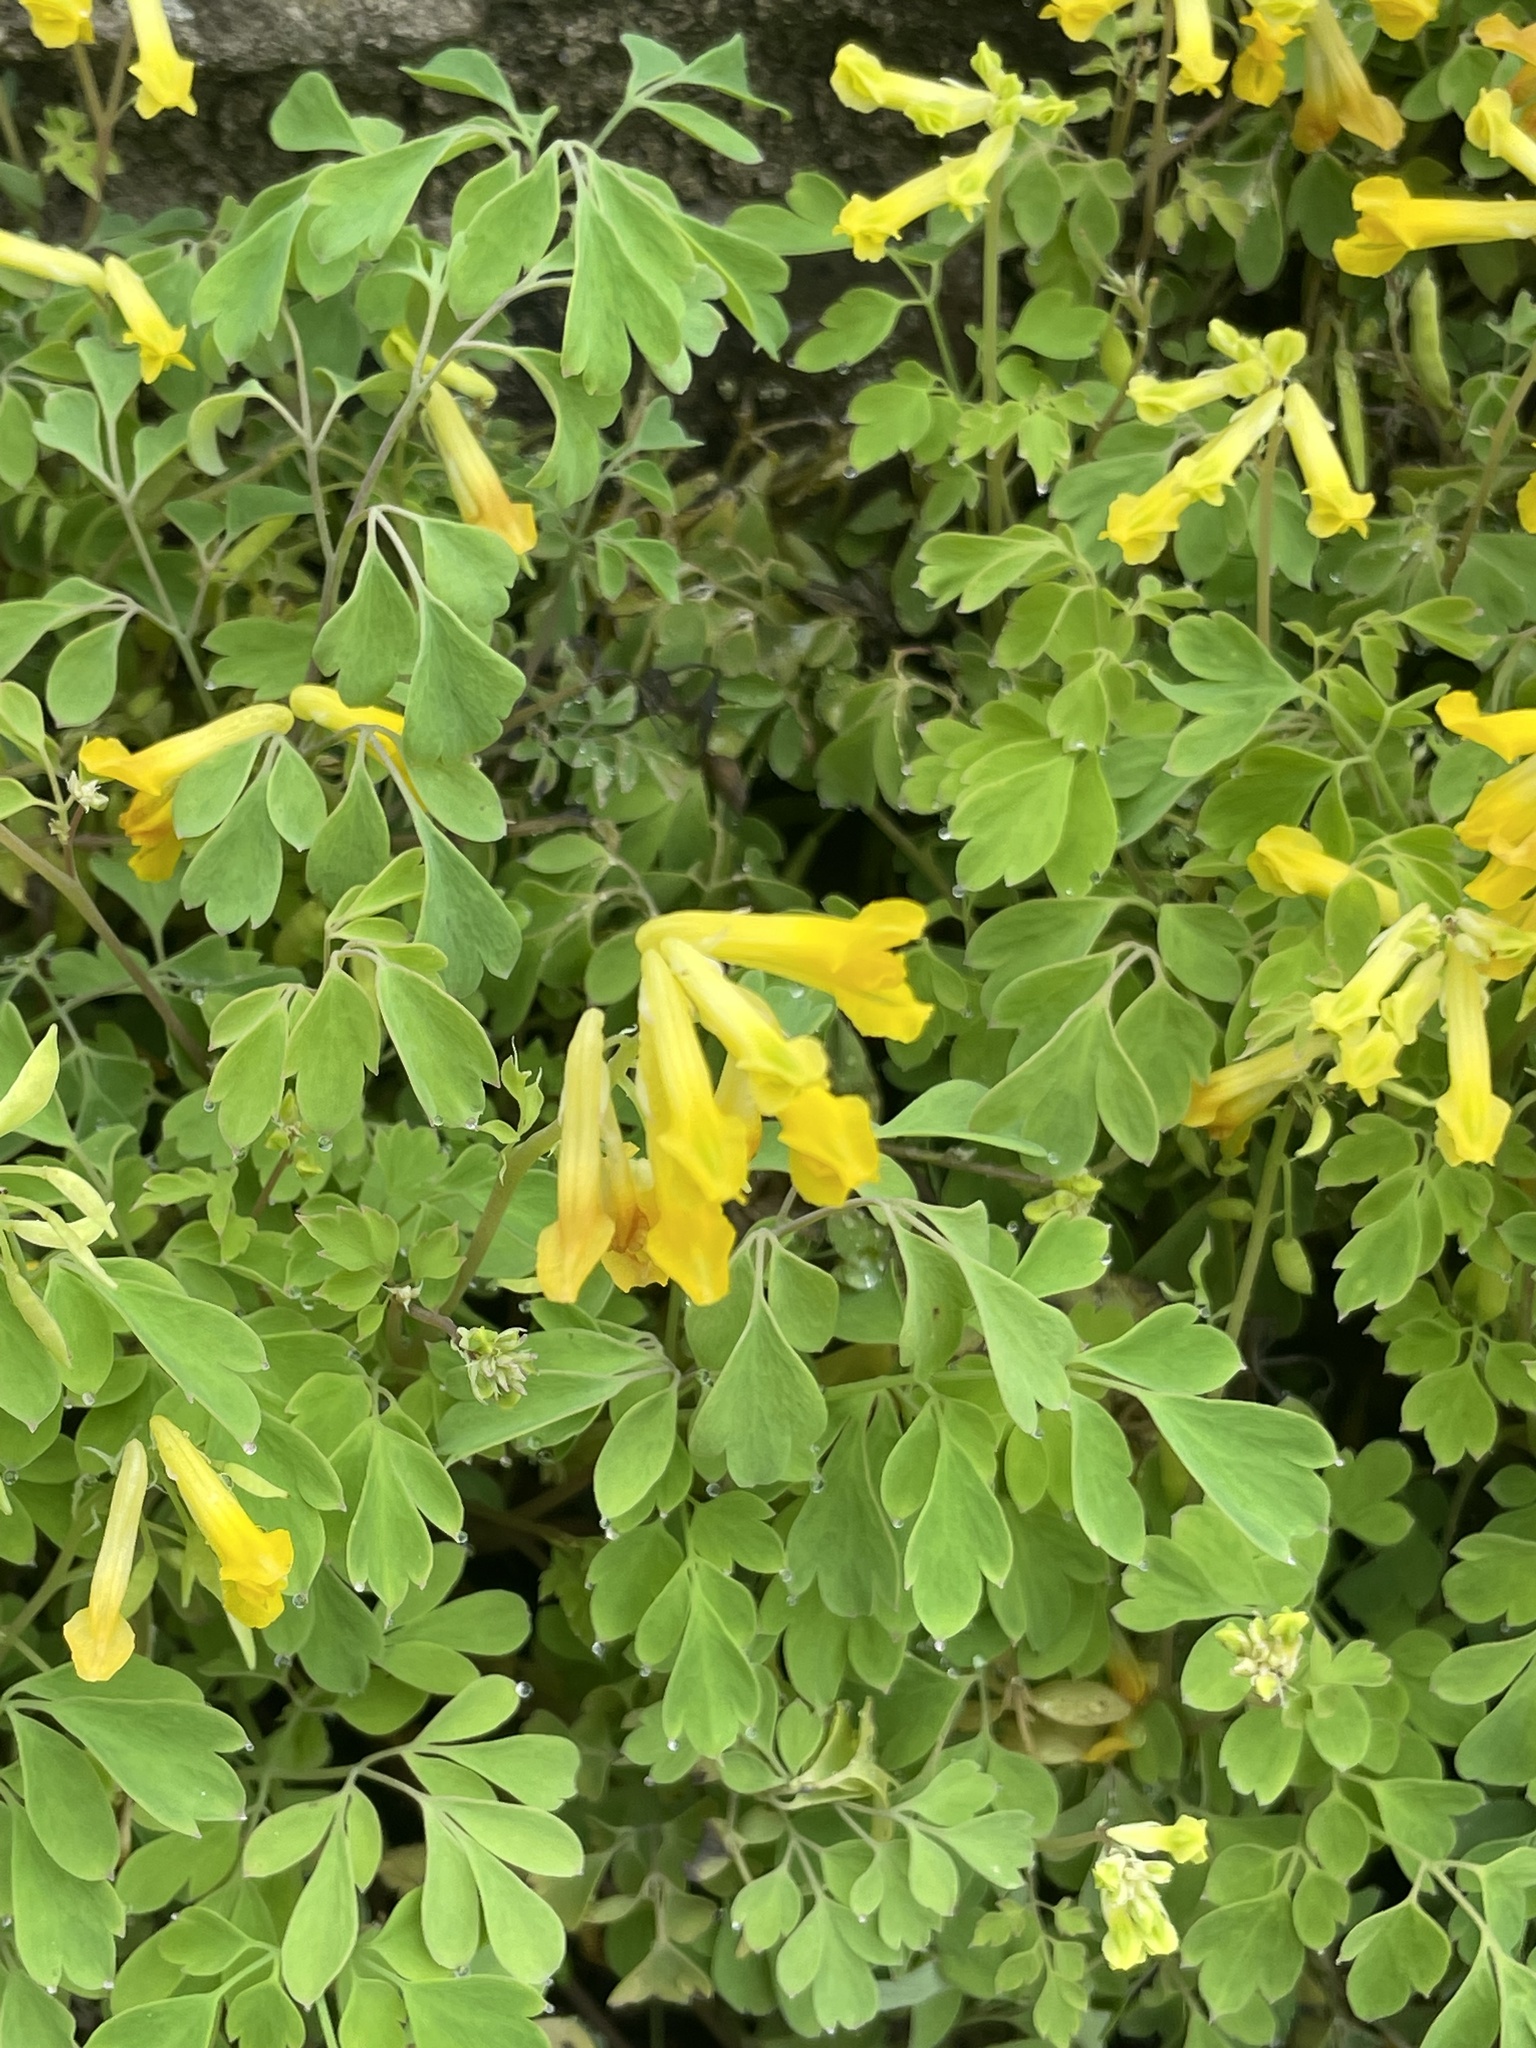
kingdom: Plantae
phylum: Tracheophyta
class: Magnoliopsida
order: Ranunculales
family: Papaveraceae
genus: Pseudofumaria
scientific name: Pseudofumaria lutea
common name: Yellow corydalis
